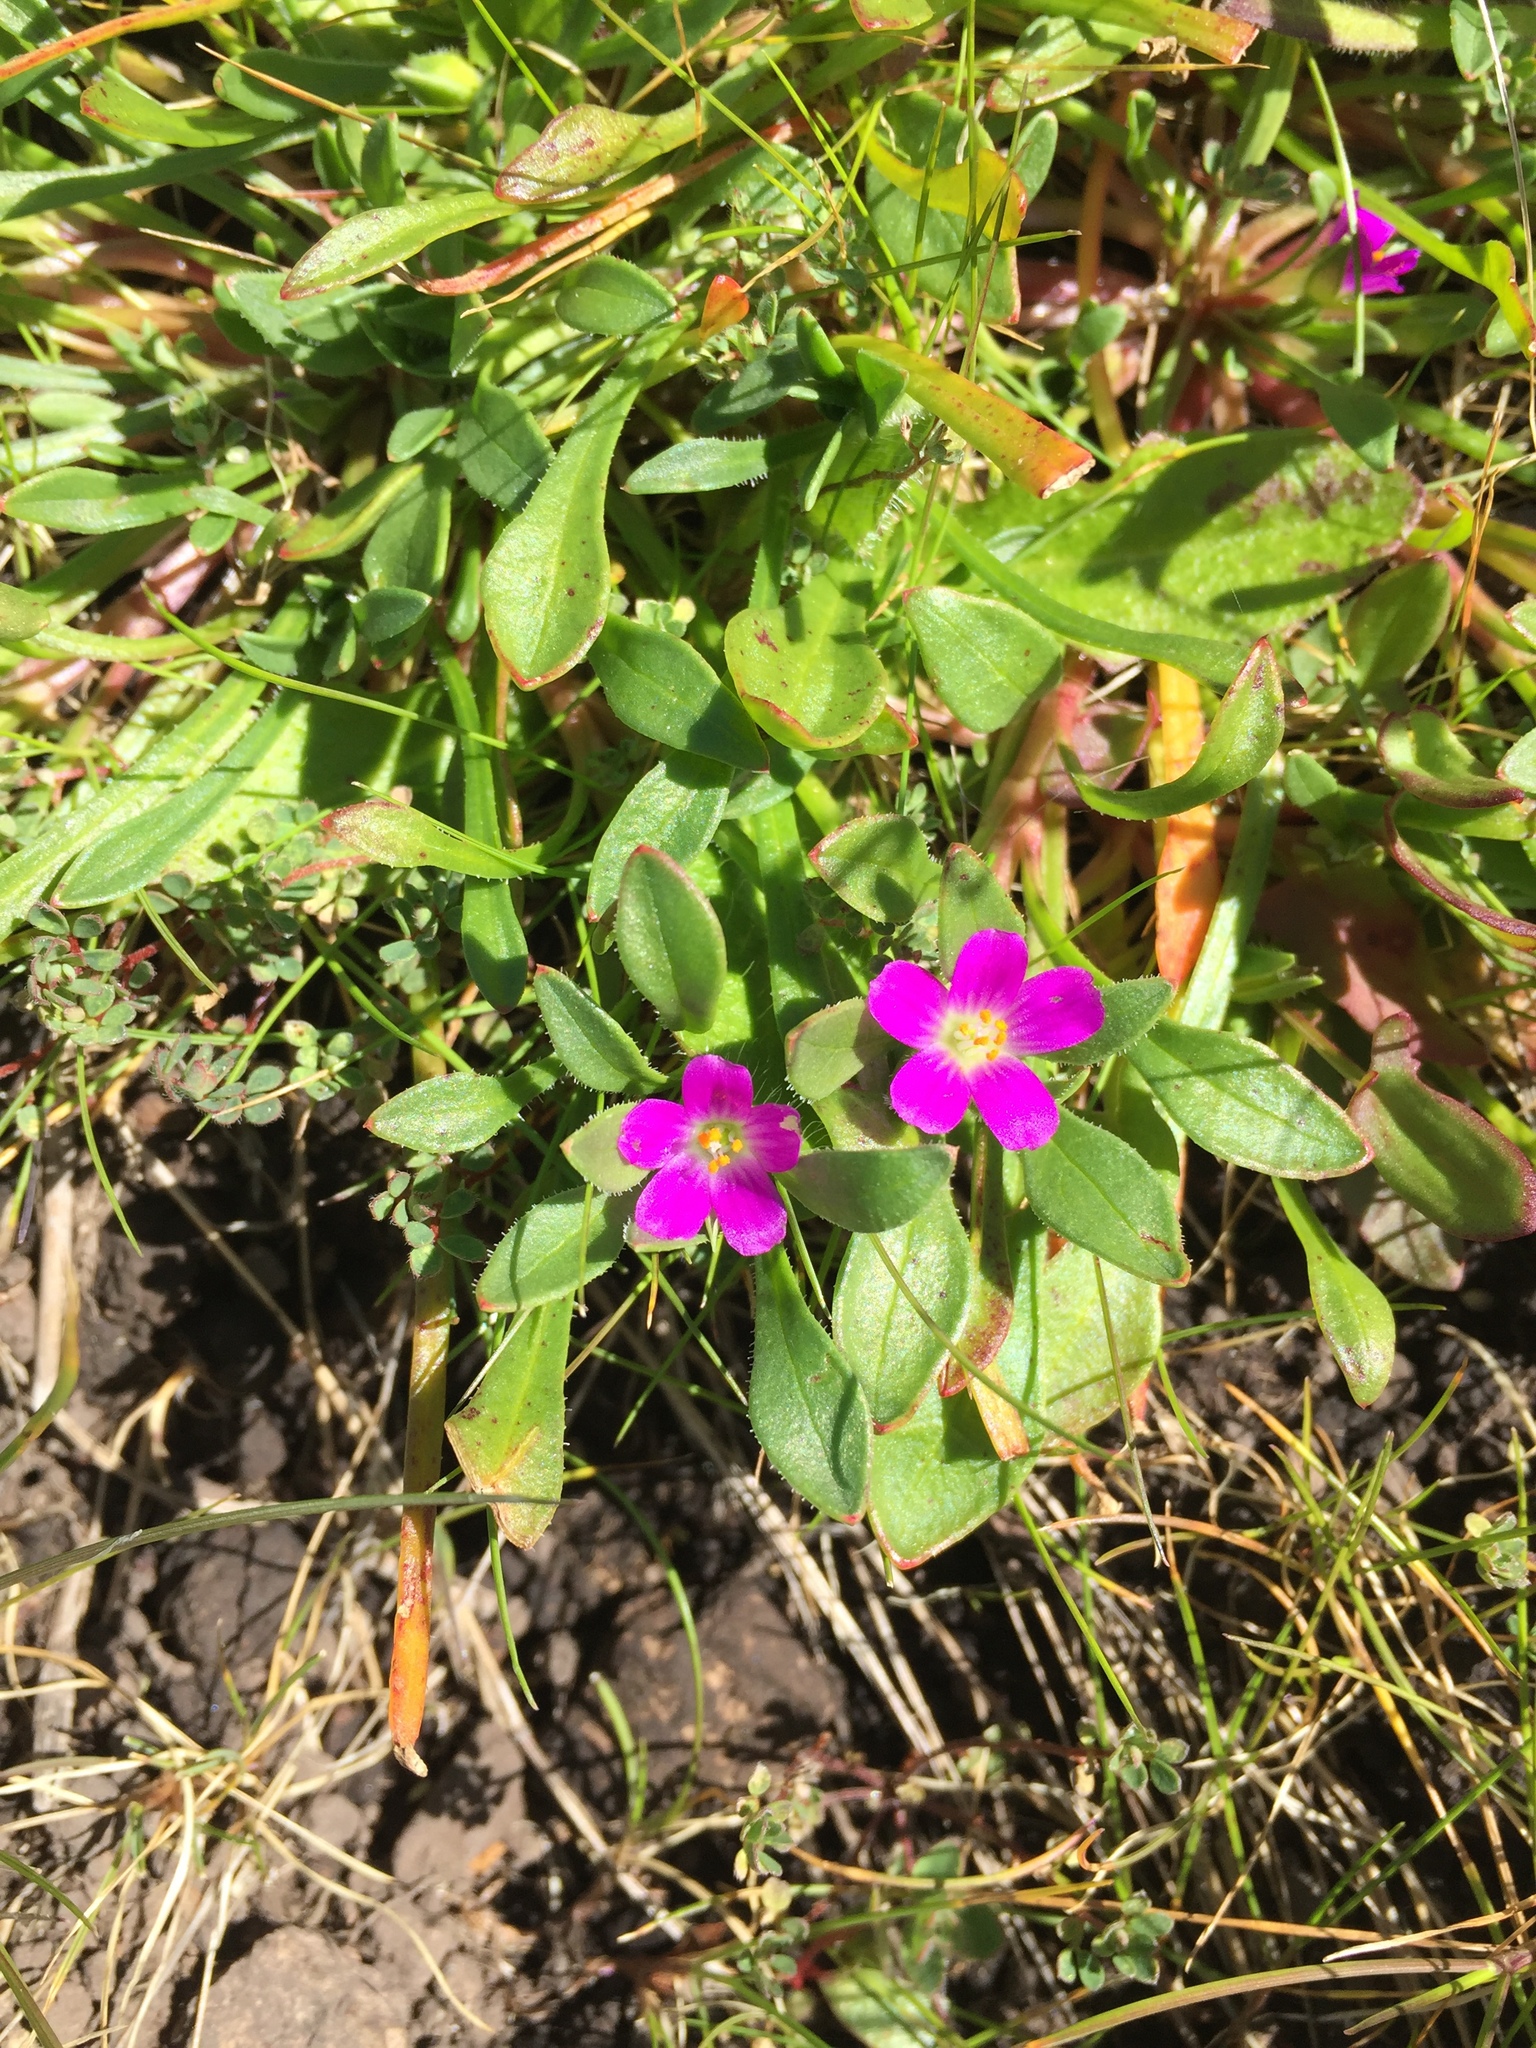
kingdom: Plantae
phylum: Tracheophyta
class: Magnoliopsida
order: Caryophyllales
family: Montiaceae
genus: Calandrinia
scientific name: Calandrinia menziesii
